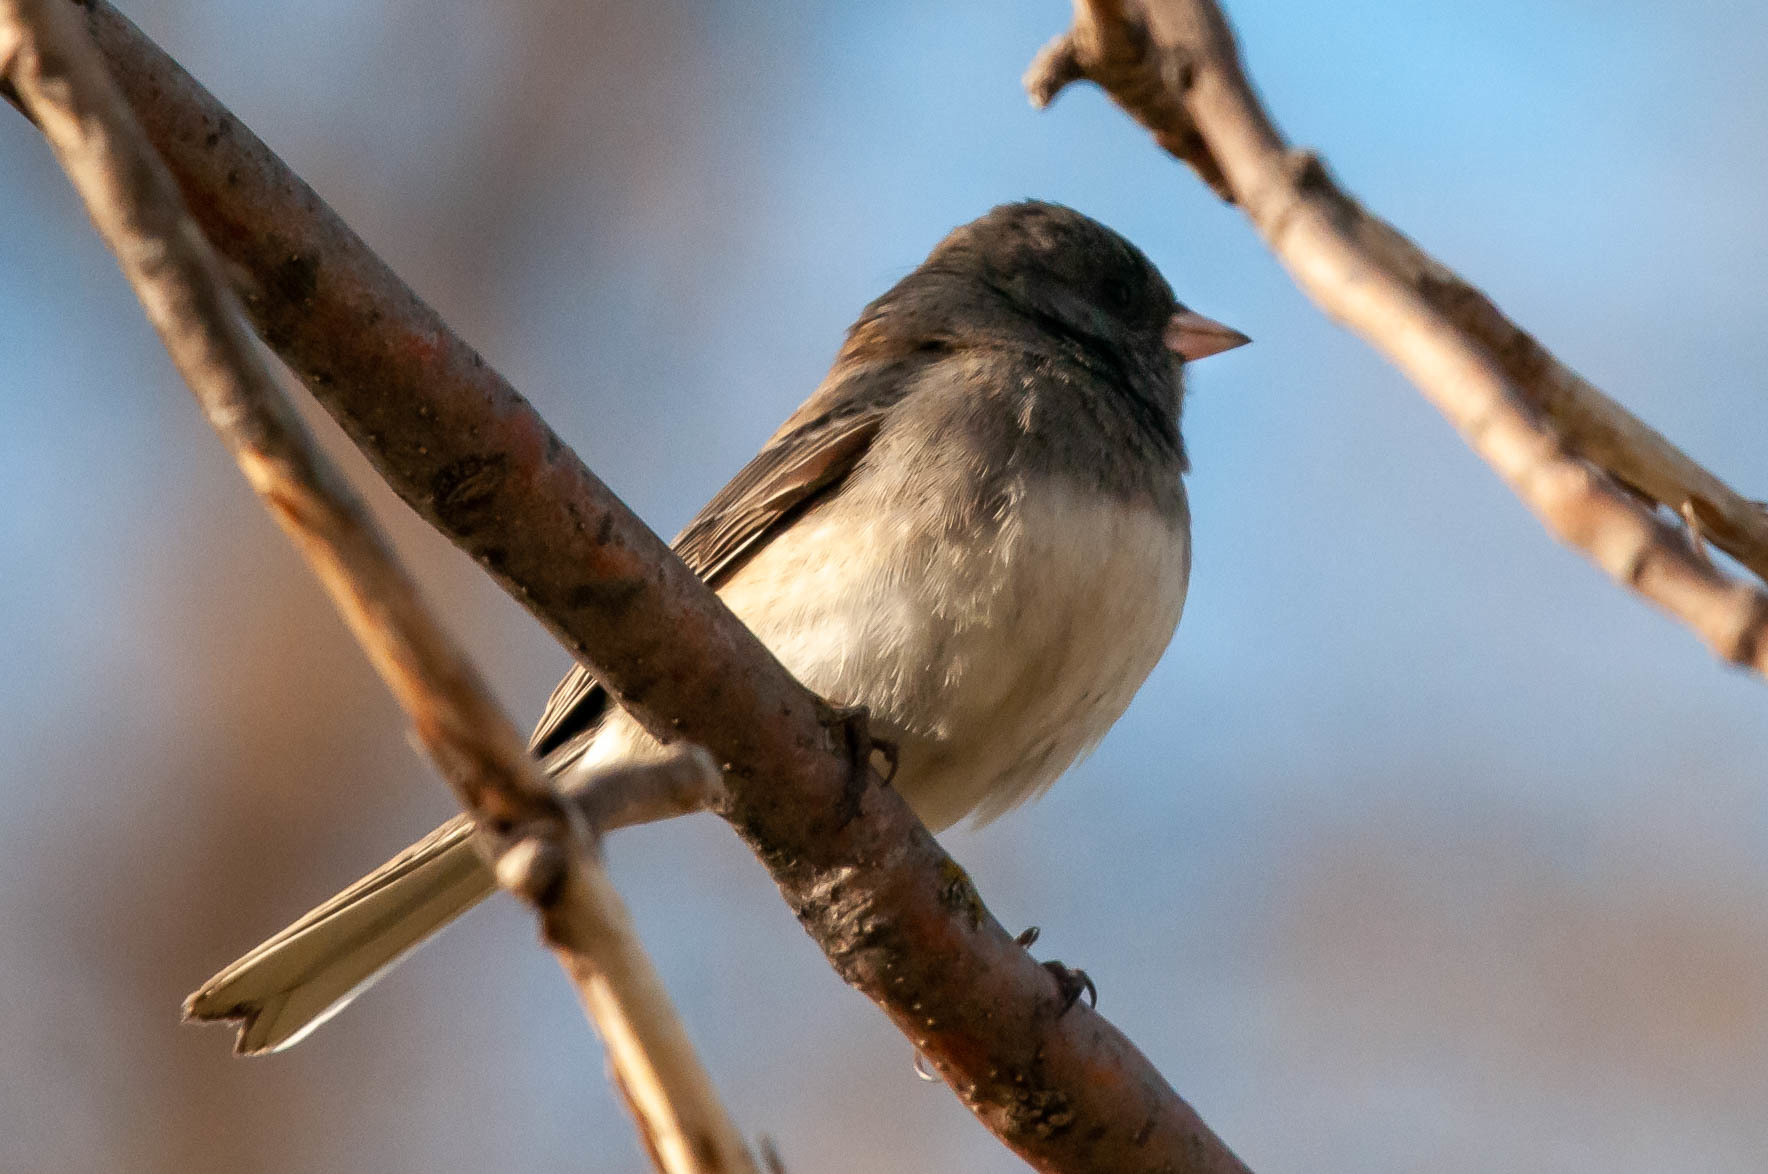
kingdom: Animalia
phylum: Chordata
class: Aves
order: Passeriformes
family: Passerellidae
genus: Junco
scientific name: Junco hyemalis
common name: Dark-eyed junco
